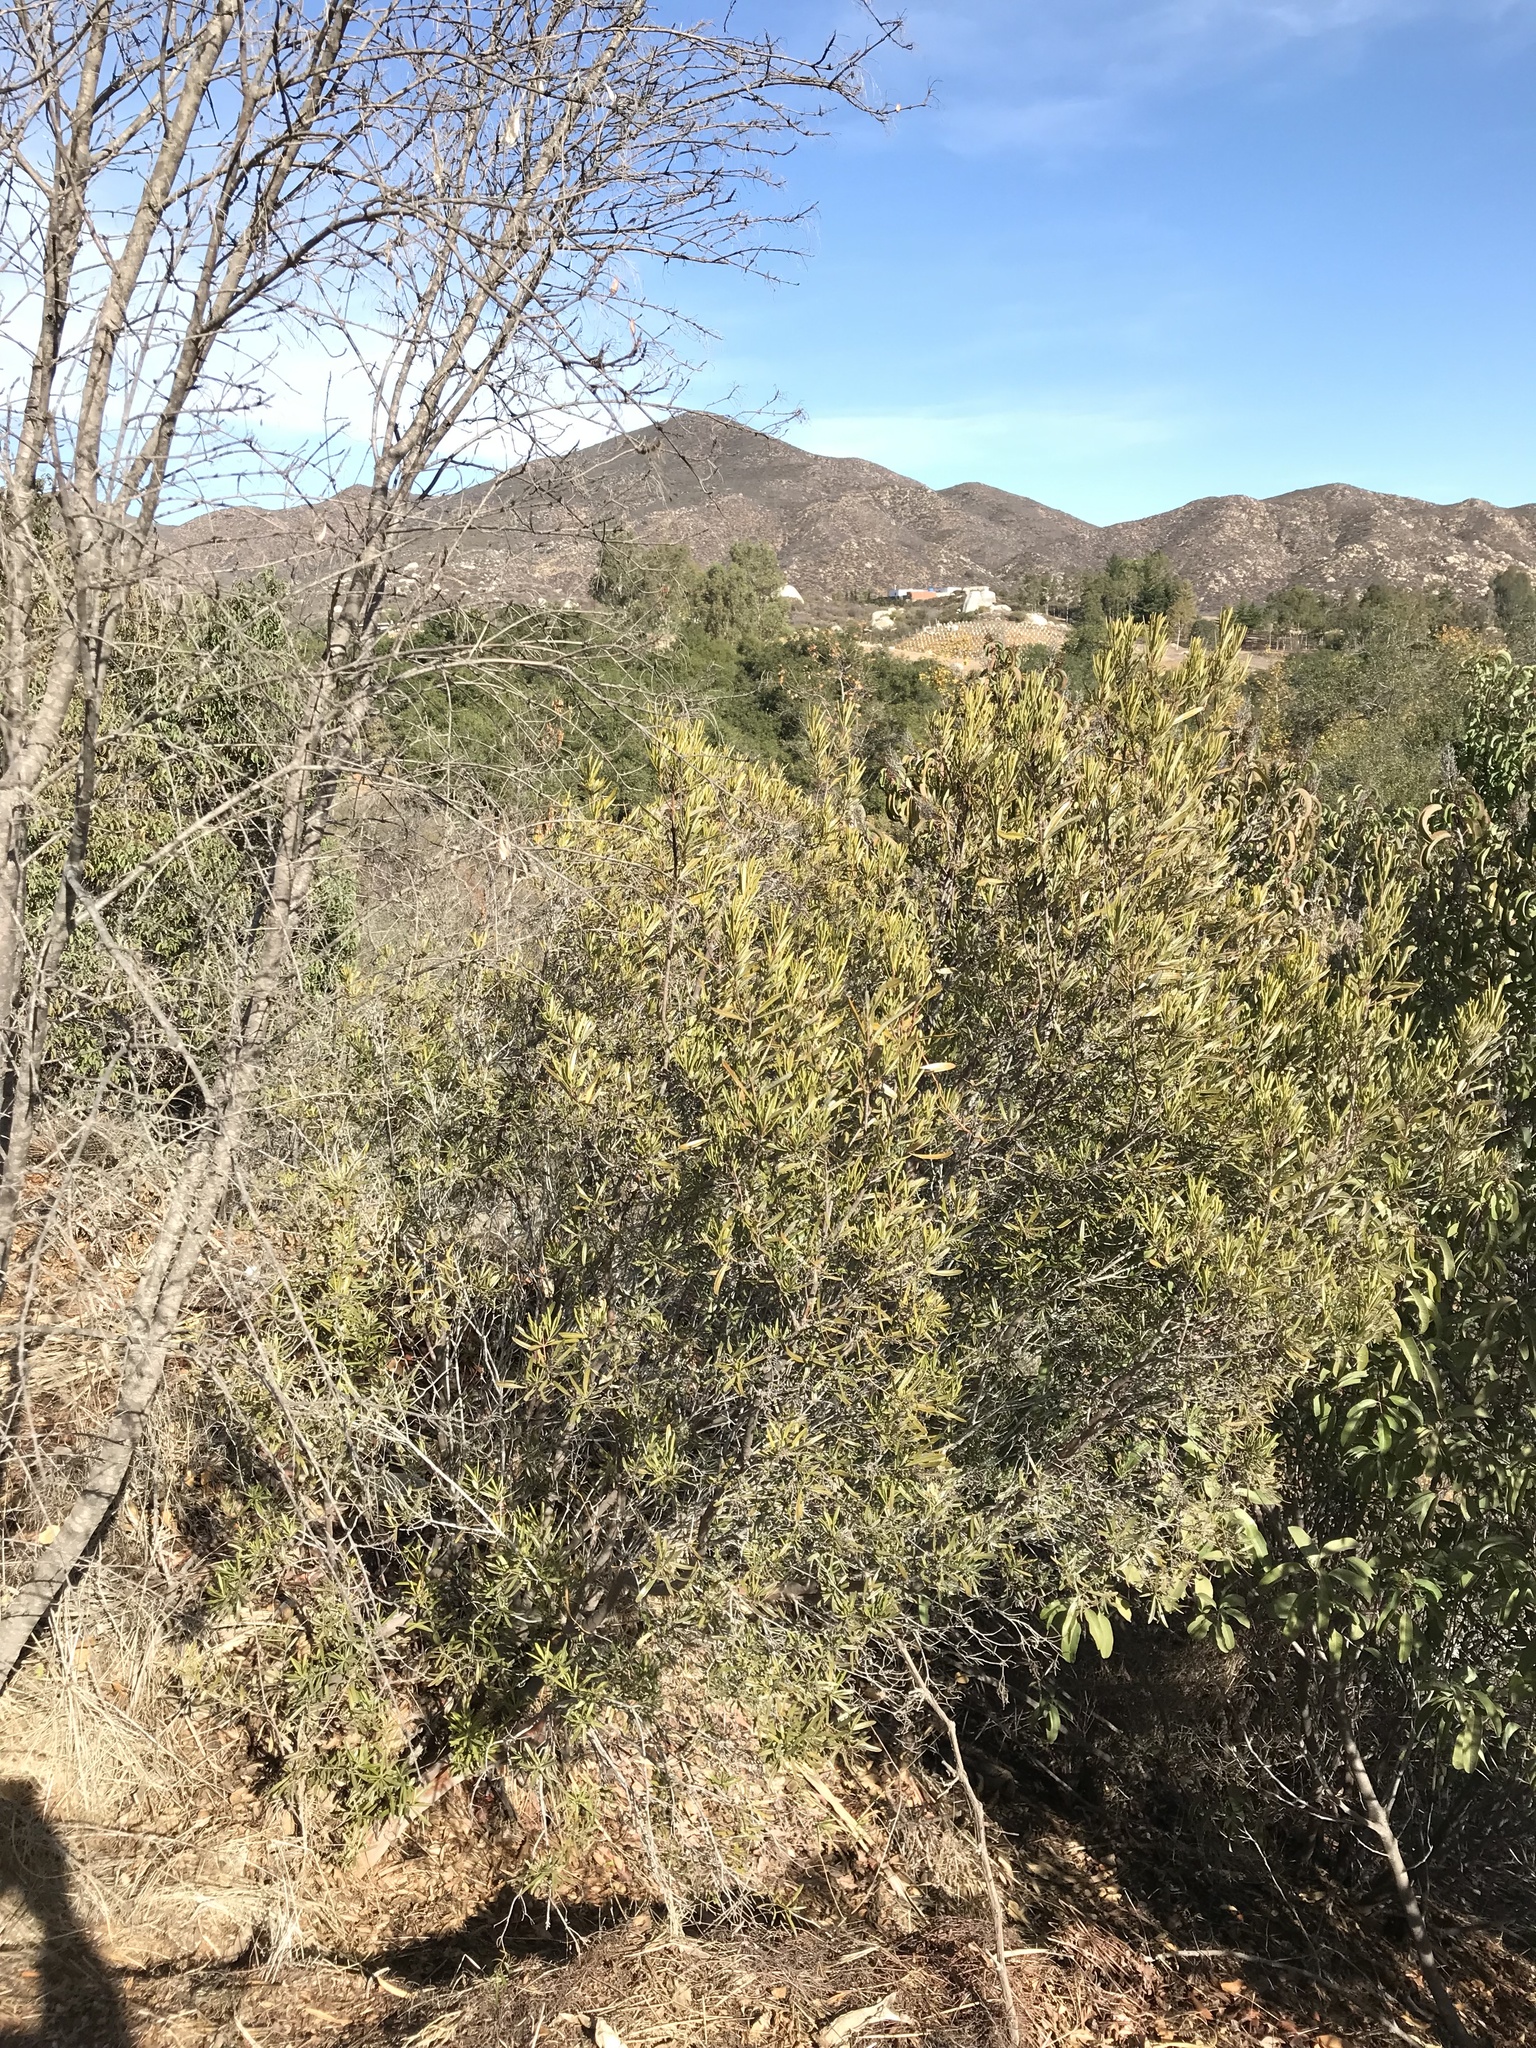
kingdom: Plantae
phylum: Tracheophyta
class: Magnoliopsida
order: Ericales
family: Ericaceae
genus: Ornithostaphylos
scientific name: Ornithostaphylos oppositifolia
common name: Baja california birdbush
